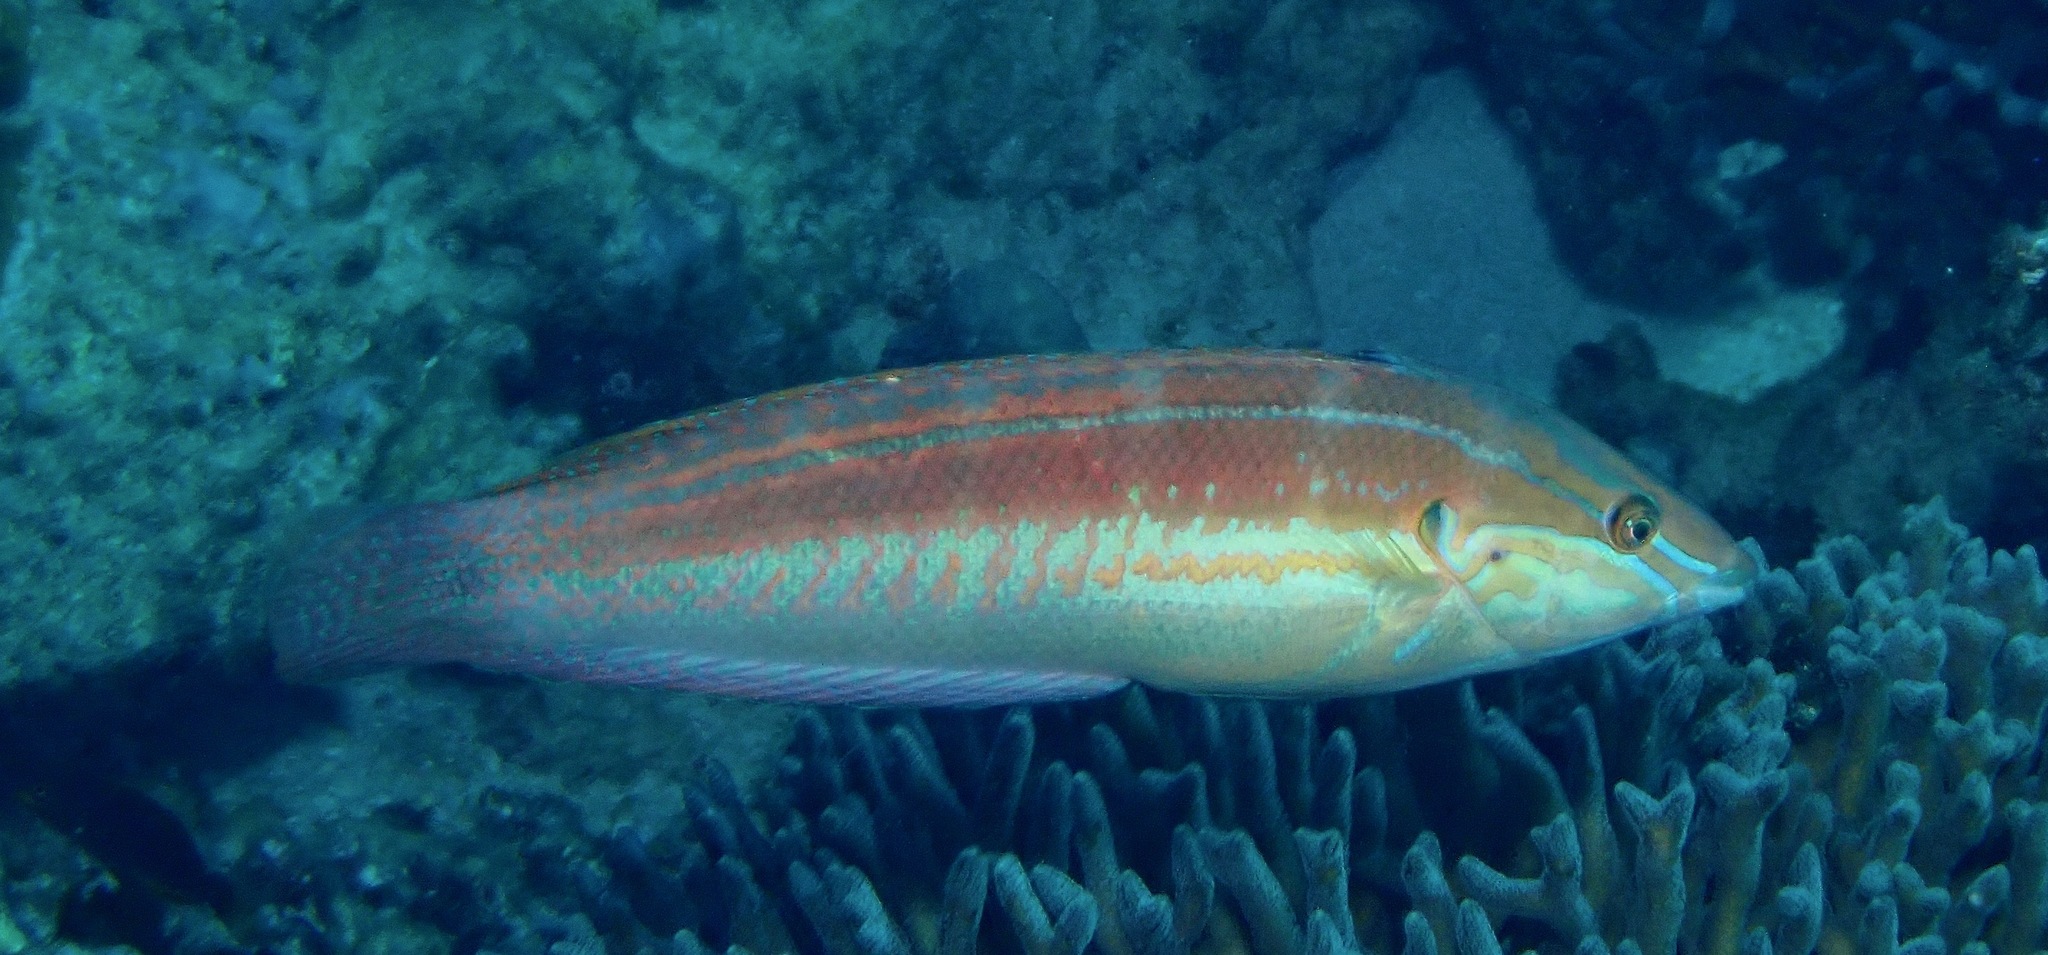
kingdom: Animalia
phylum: Chordata
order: Perciformes
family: Labridae
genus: Coris
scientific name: Coris caudimacula
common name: Spottail coris
